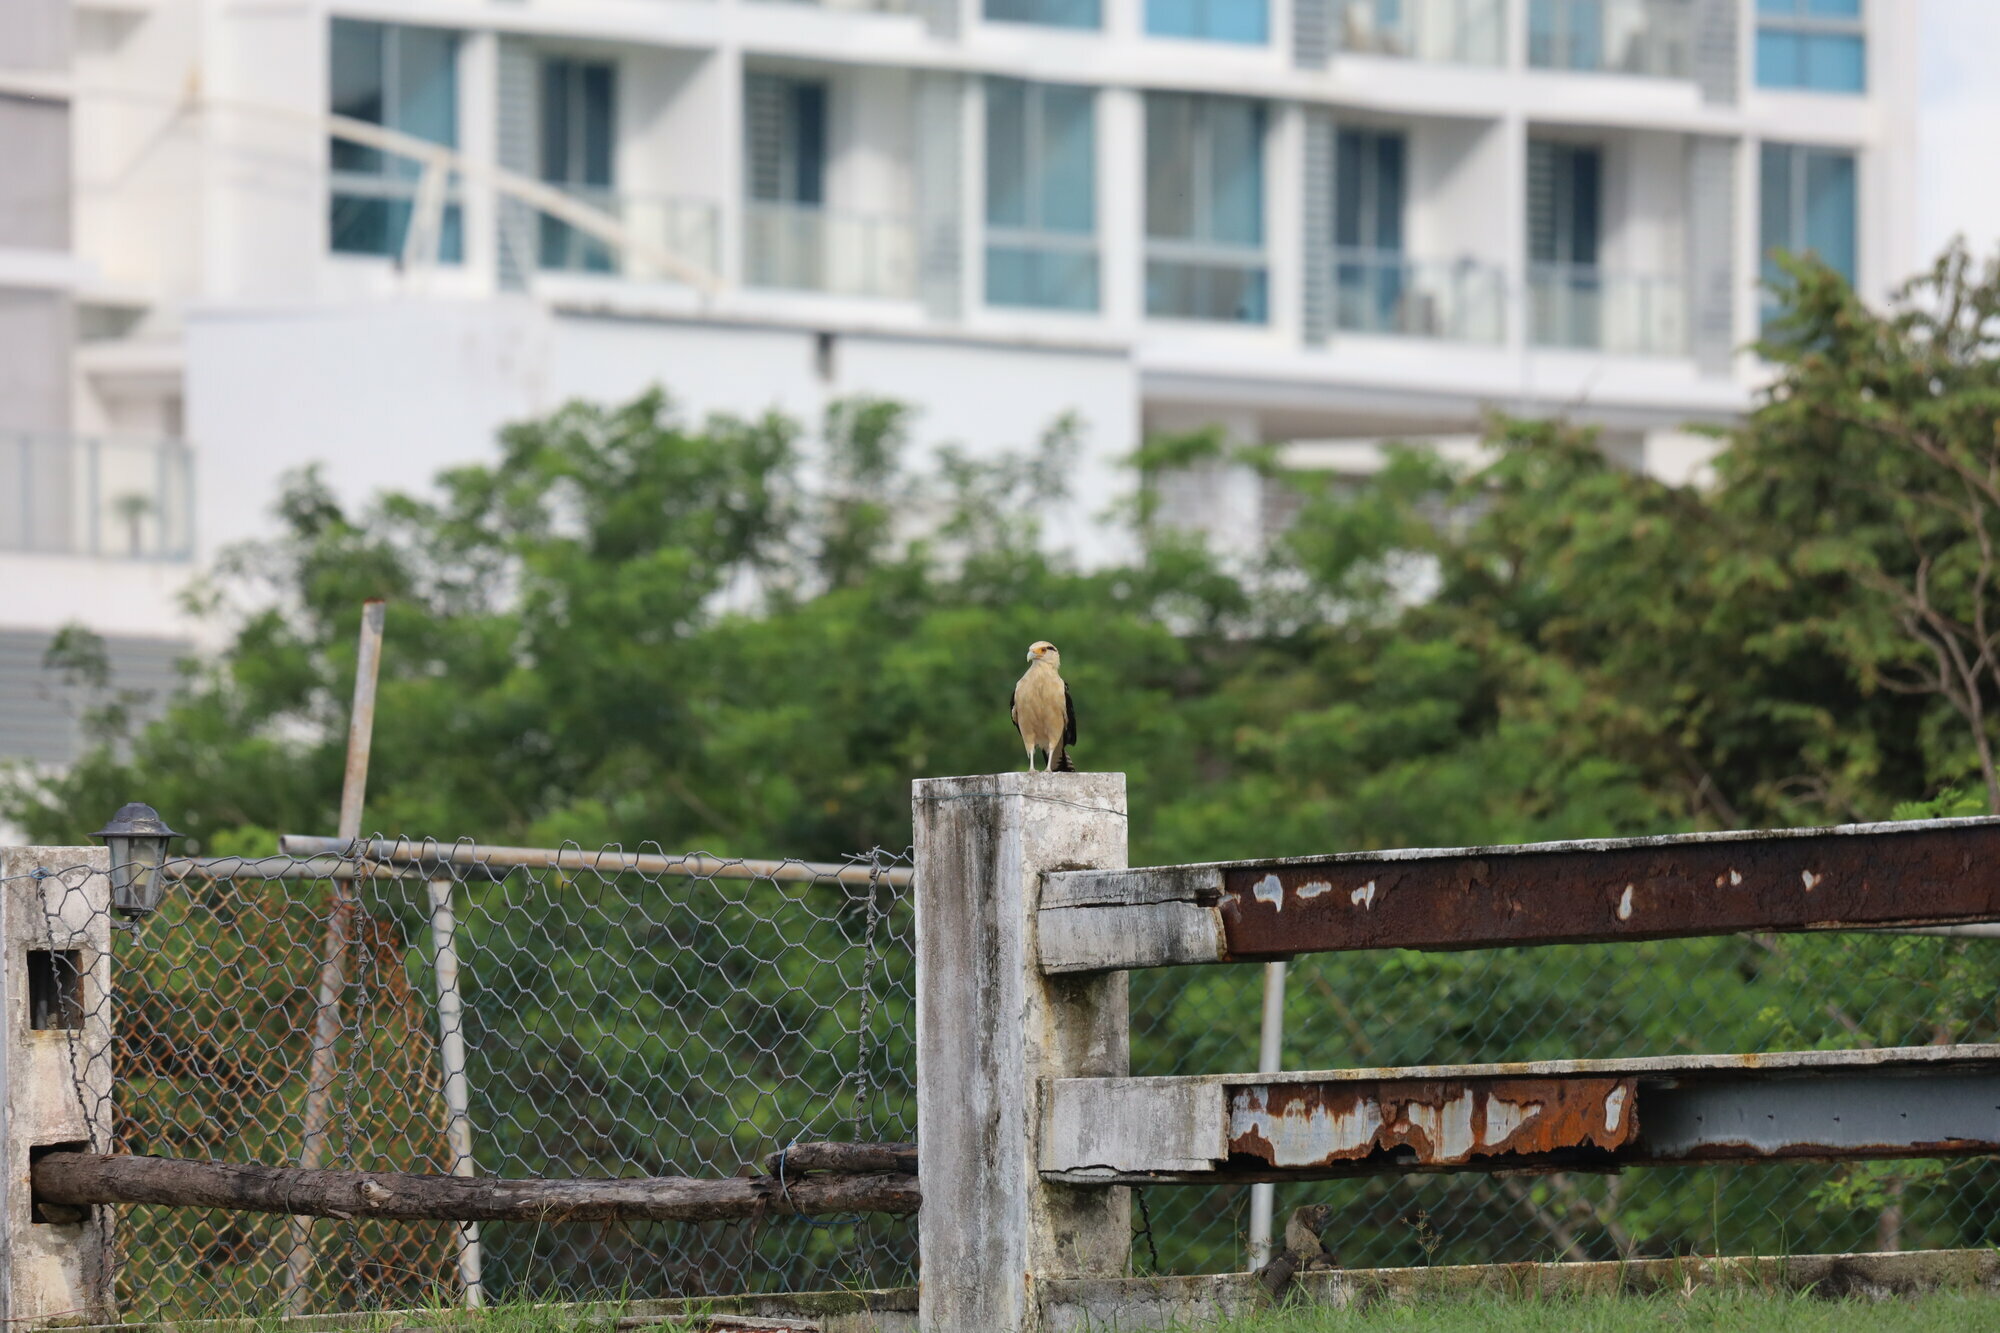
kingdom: Animalia
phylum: Chordata
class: Aves
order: Falconiformes
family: Falconidae
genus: Daptrius
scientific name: Daptrius
